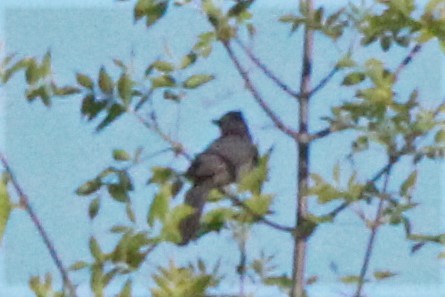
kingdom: Animalia
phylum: Chordata
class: Aves
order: Passeriformes
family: Mimidae
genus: Dumetella
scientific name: Dumetella carolinensis
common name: Gray catbird
